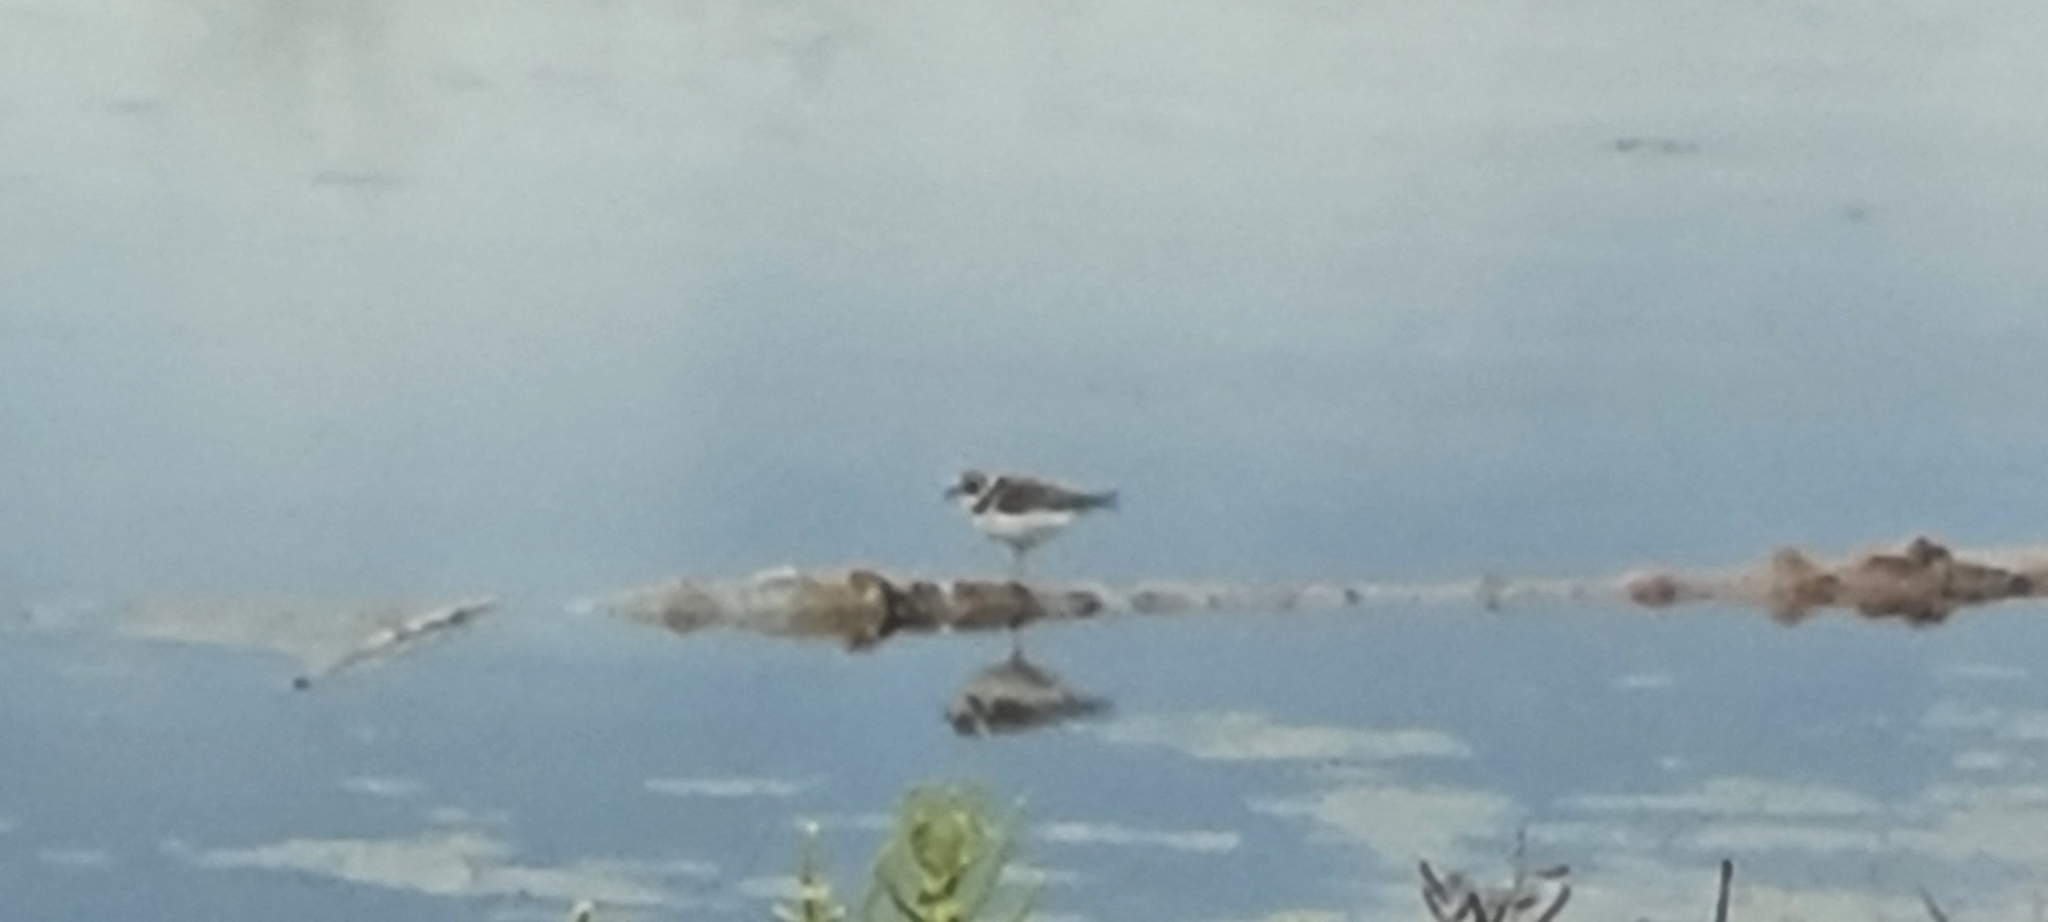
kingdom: Animalia
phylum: Chordata
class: Aves
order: Charadriiformes
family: Charadriidae
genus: Charadrius
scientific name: Charadrius hiaticula
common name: Common ringed plover
